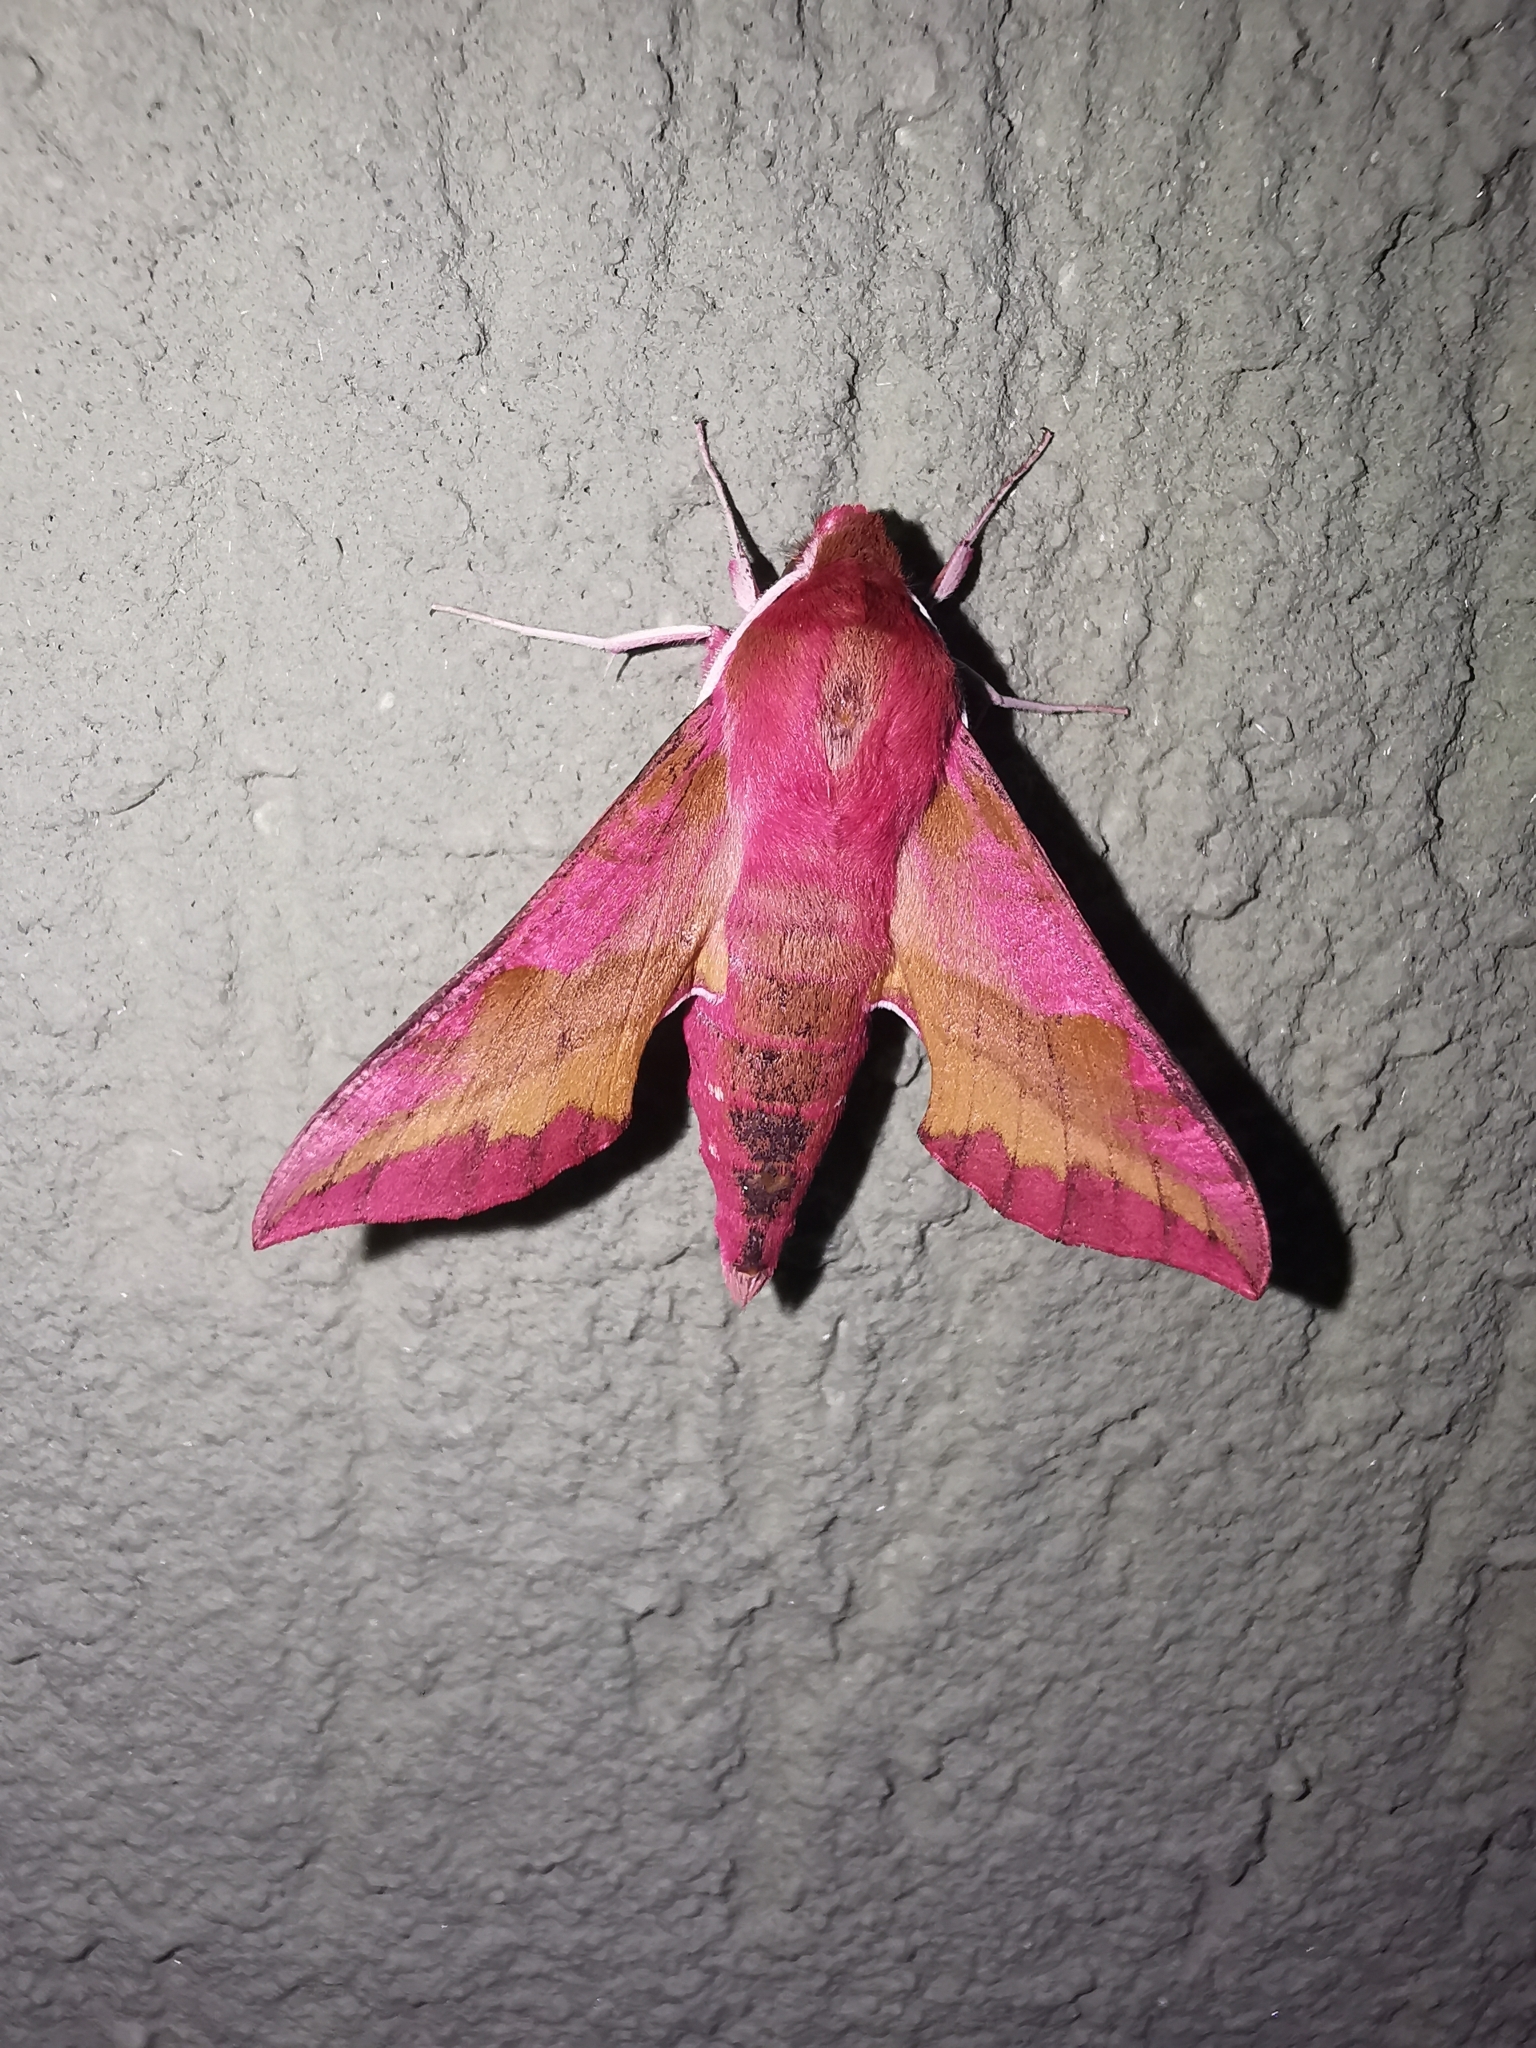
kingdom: Animalia
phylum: Arthropoda
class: Insecta
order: Lepidoptera
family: Sphingidae
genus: Deilephila
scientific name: Deilephila porcellus
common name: Small elephant hawk-moth
